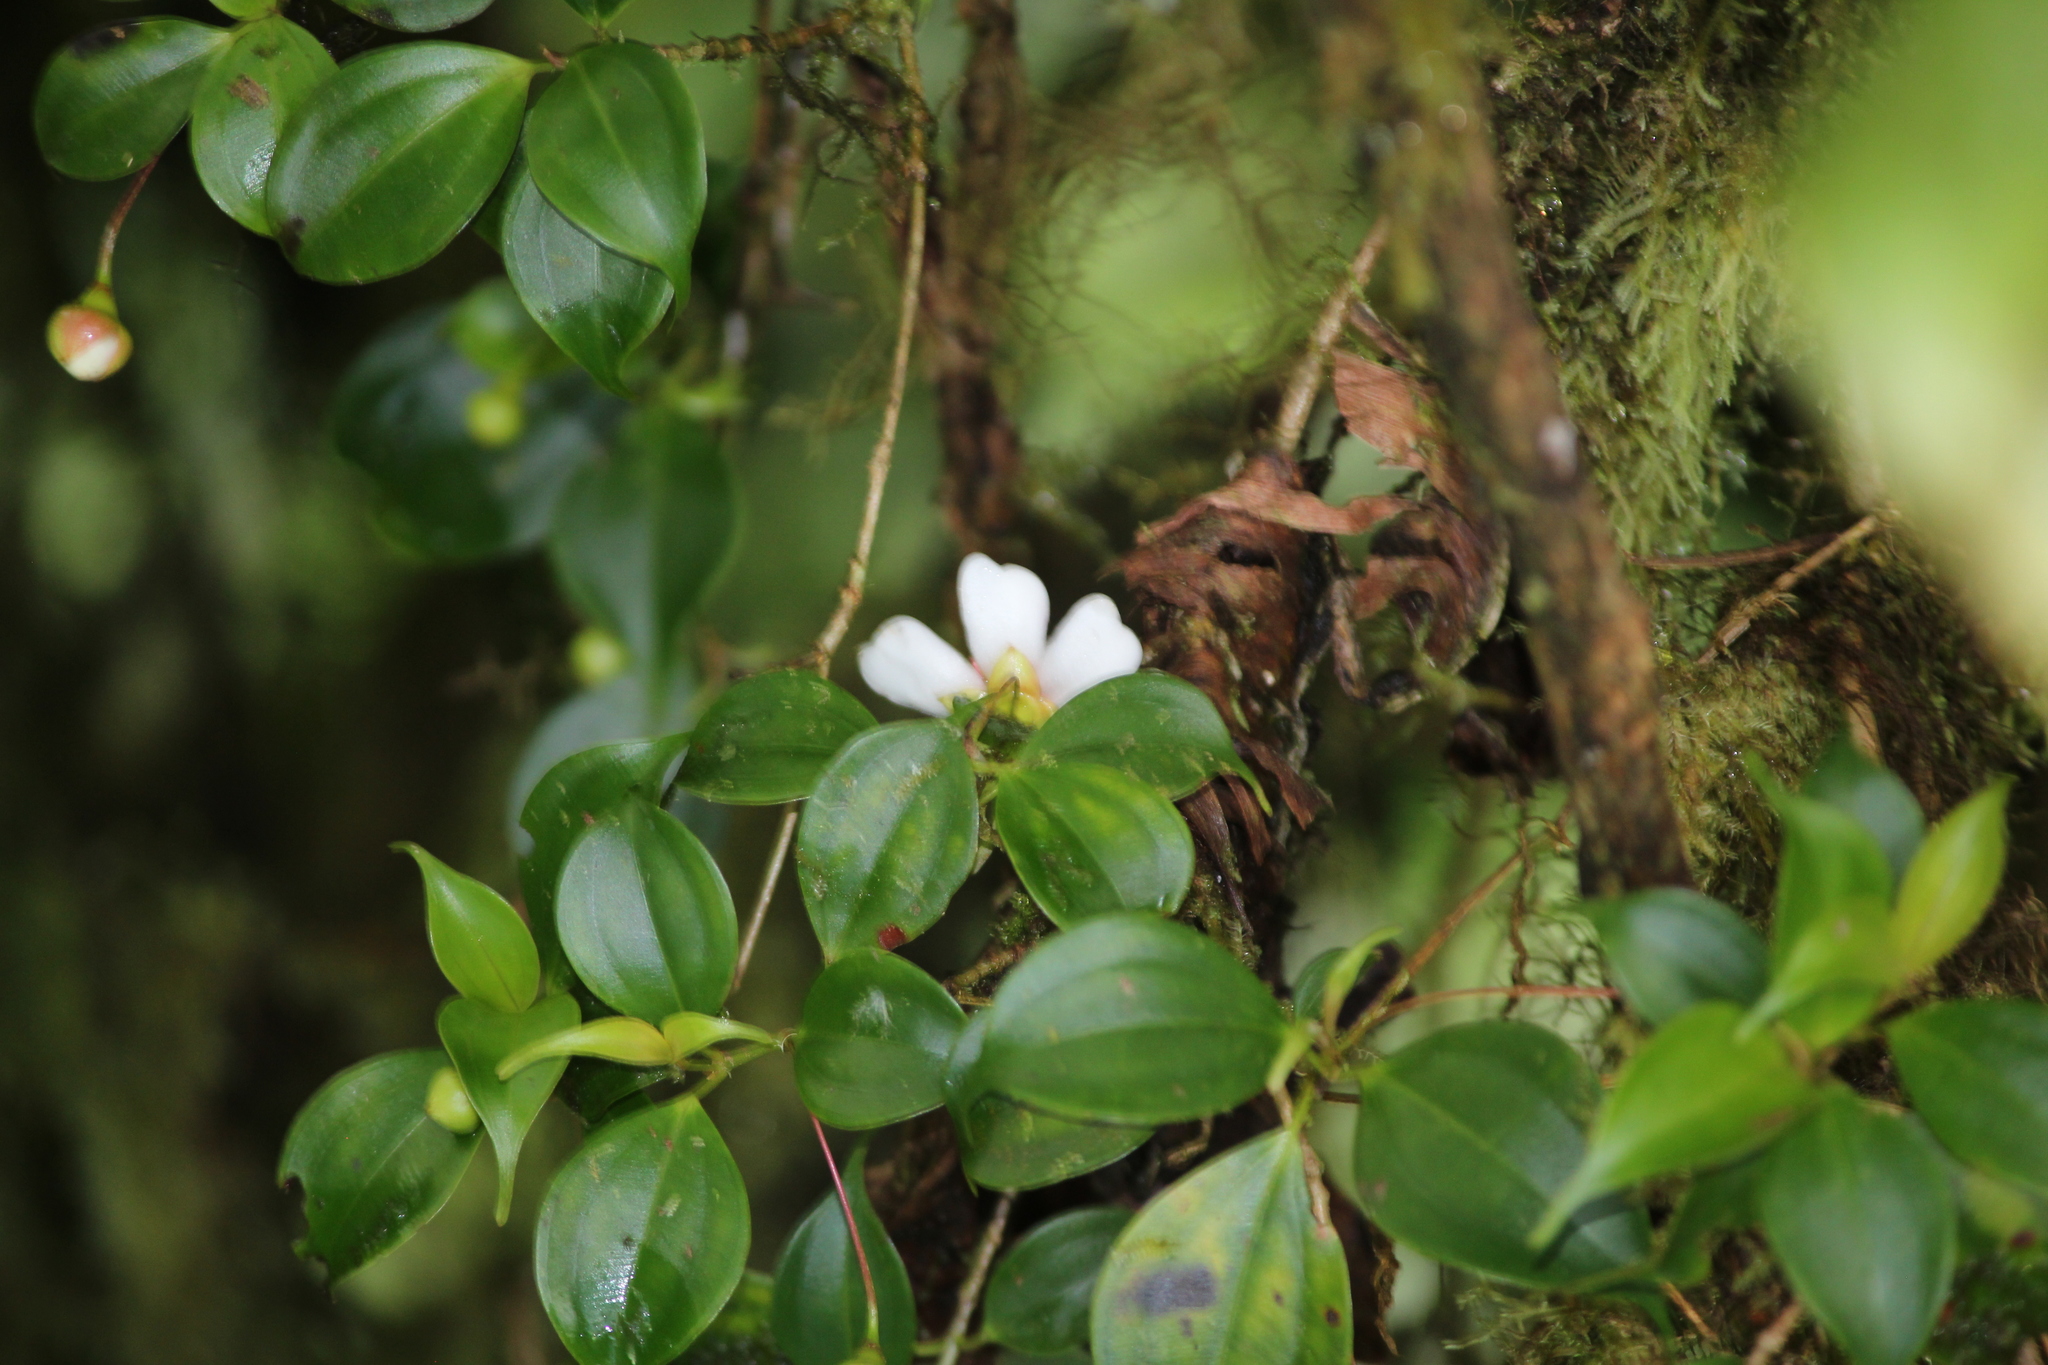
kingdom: Plantae
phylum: Tracheophyta
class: Magnoliopsida
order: Myrtales
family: Melastomataceae
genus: Blakea
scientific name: Blakea anomala
